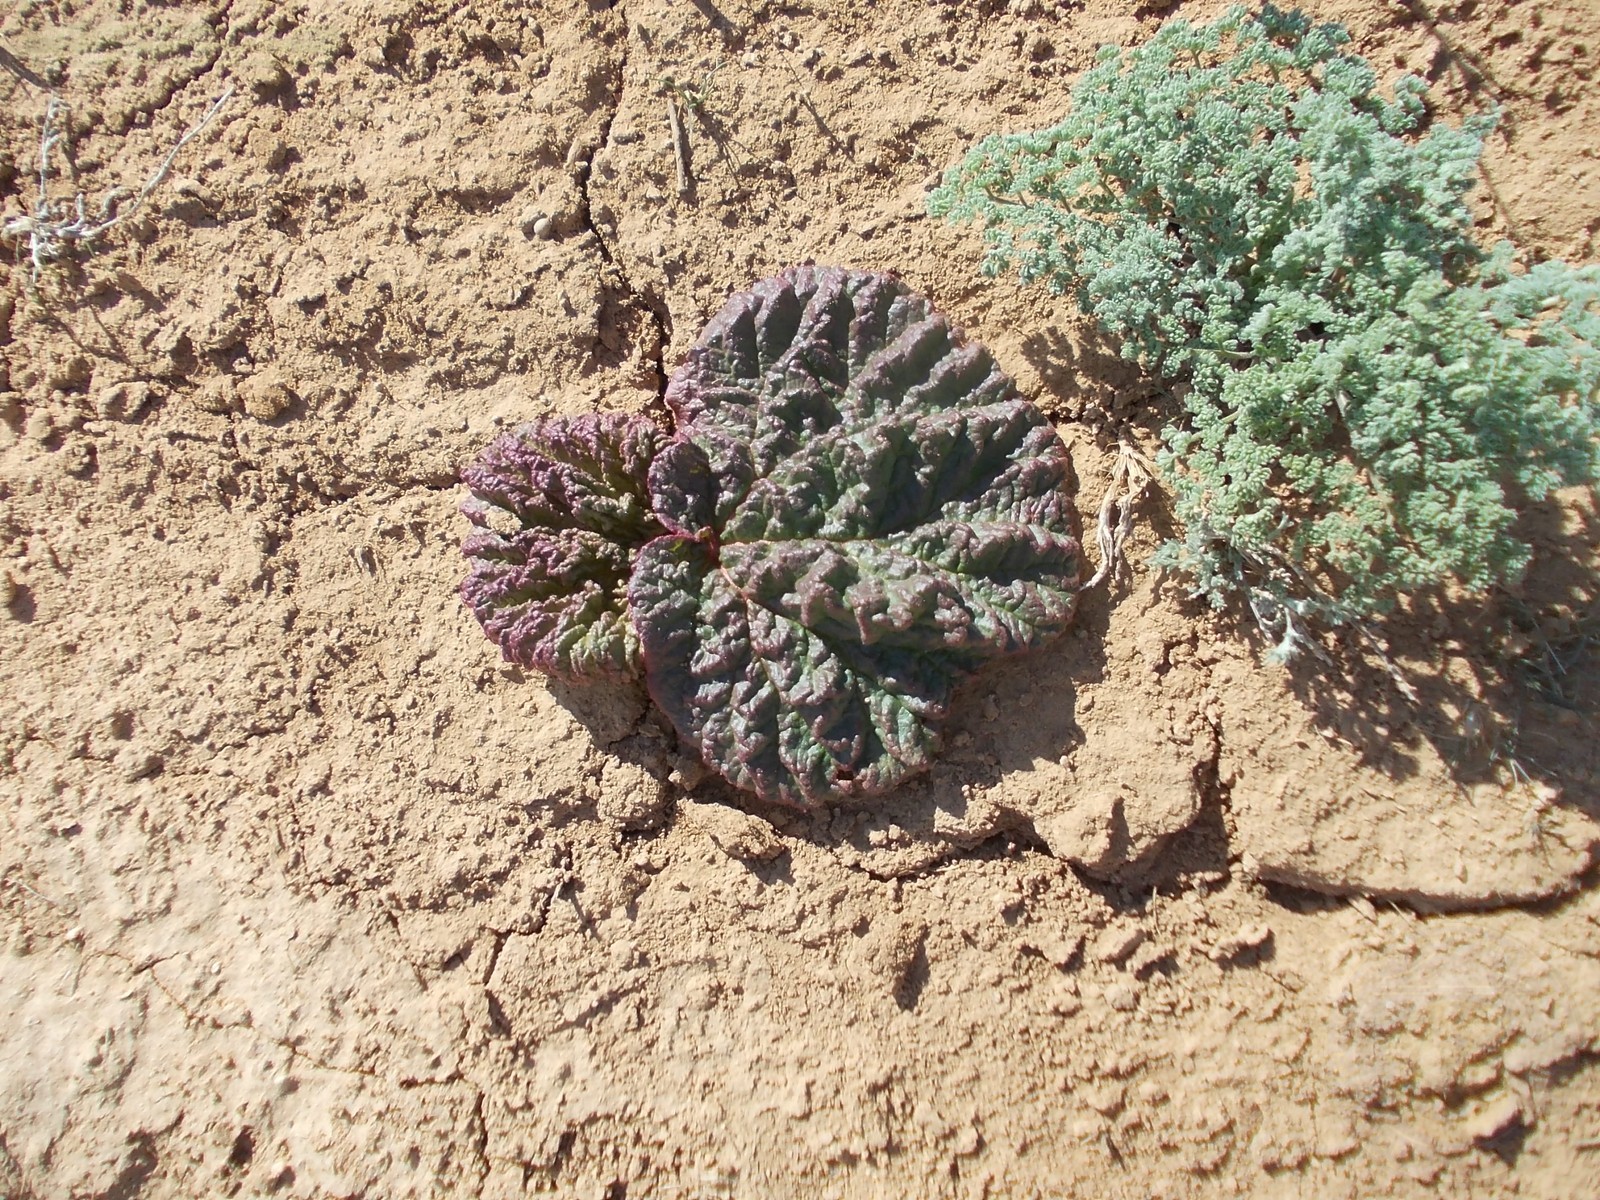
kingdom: Plantae
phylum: Tracheophyta
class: Magnoliopsida
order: Caryophyllales
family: Polygonaceae
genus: Rheum
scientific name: Rheum tataricum
